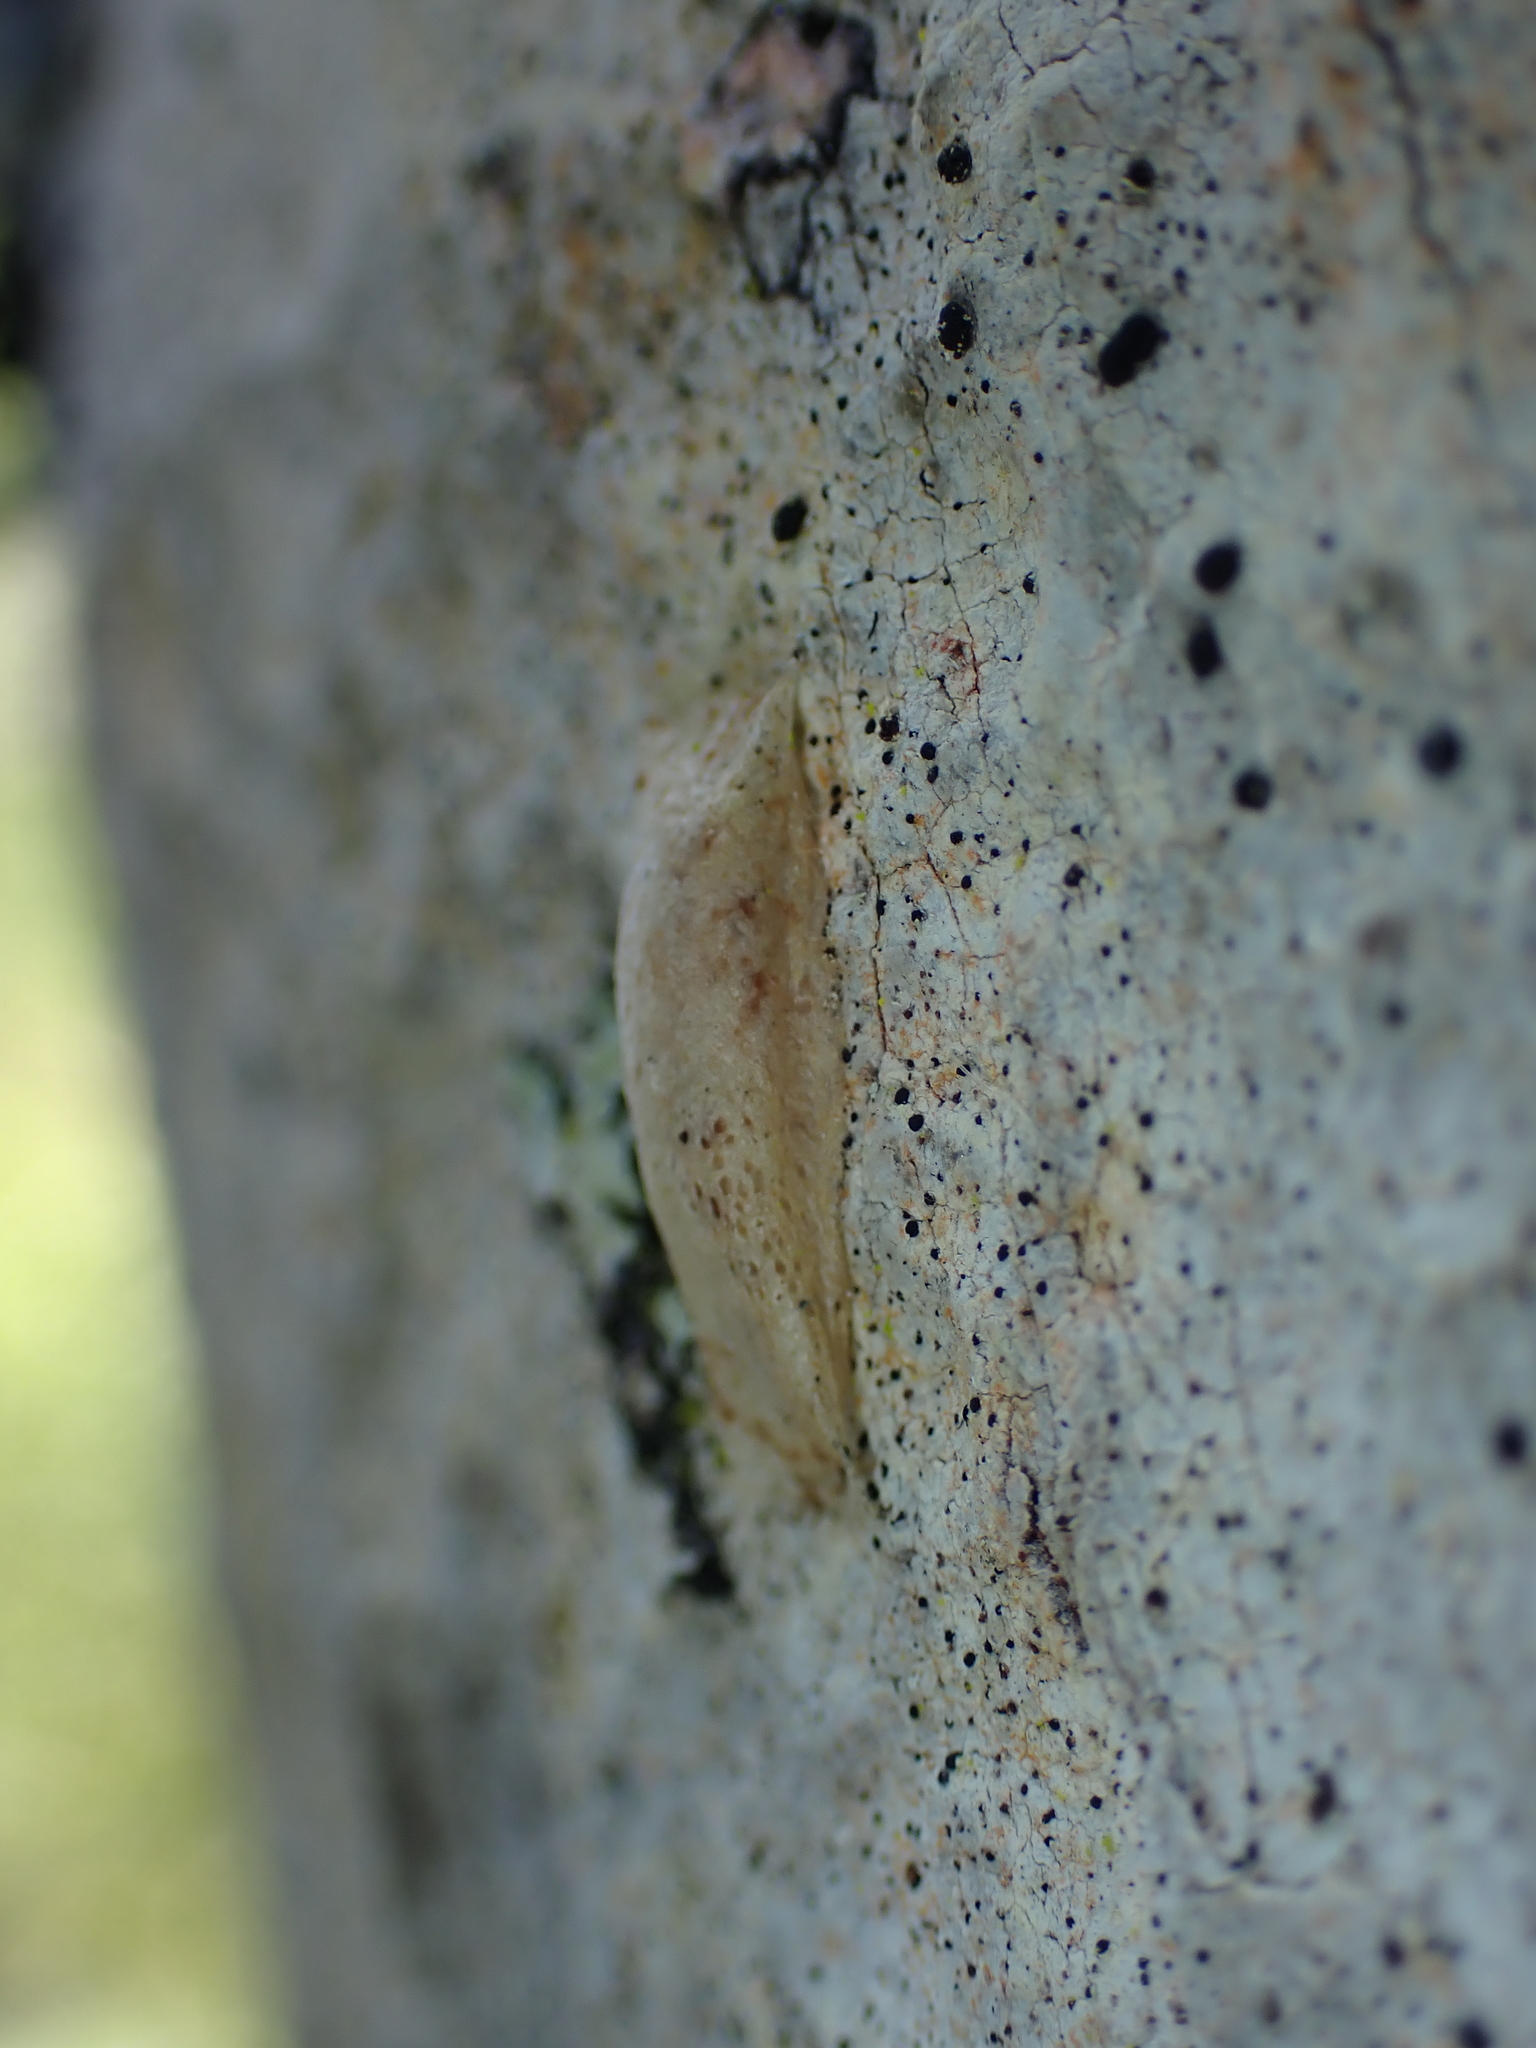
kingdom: Animalia
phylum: Arthropoda
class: Insecta
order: Lepidoptera
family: Plutellidae
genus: Doxophyrtis
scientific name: Doxophyrtis hydrocosma
